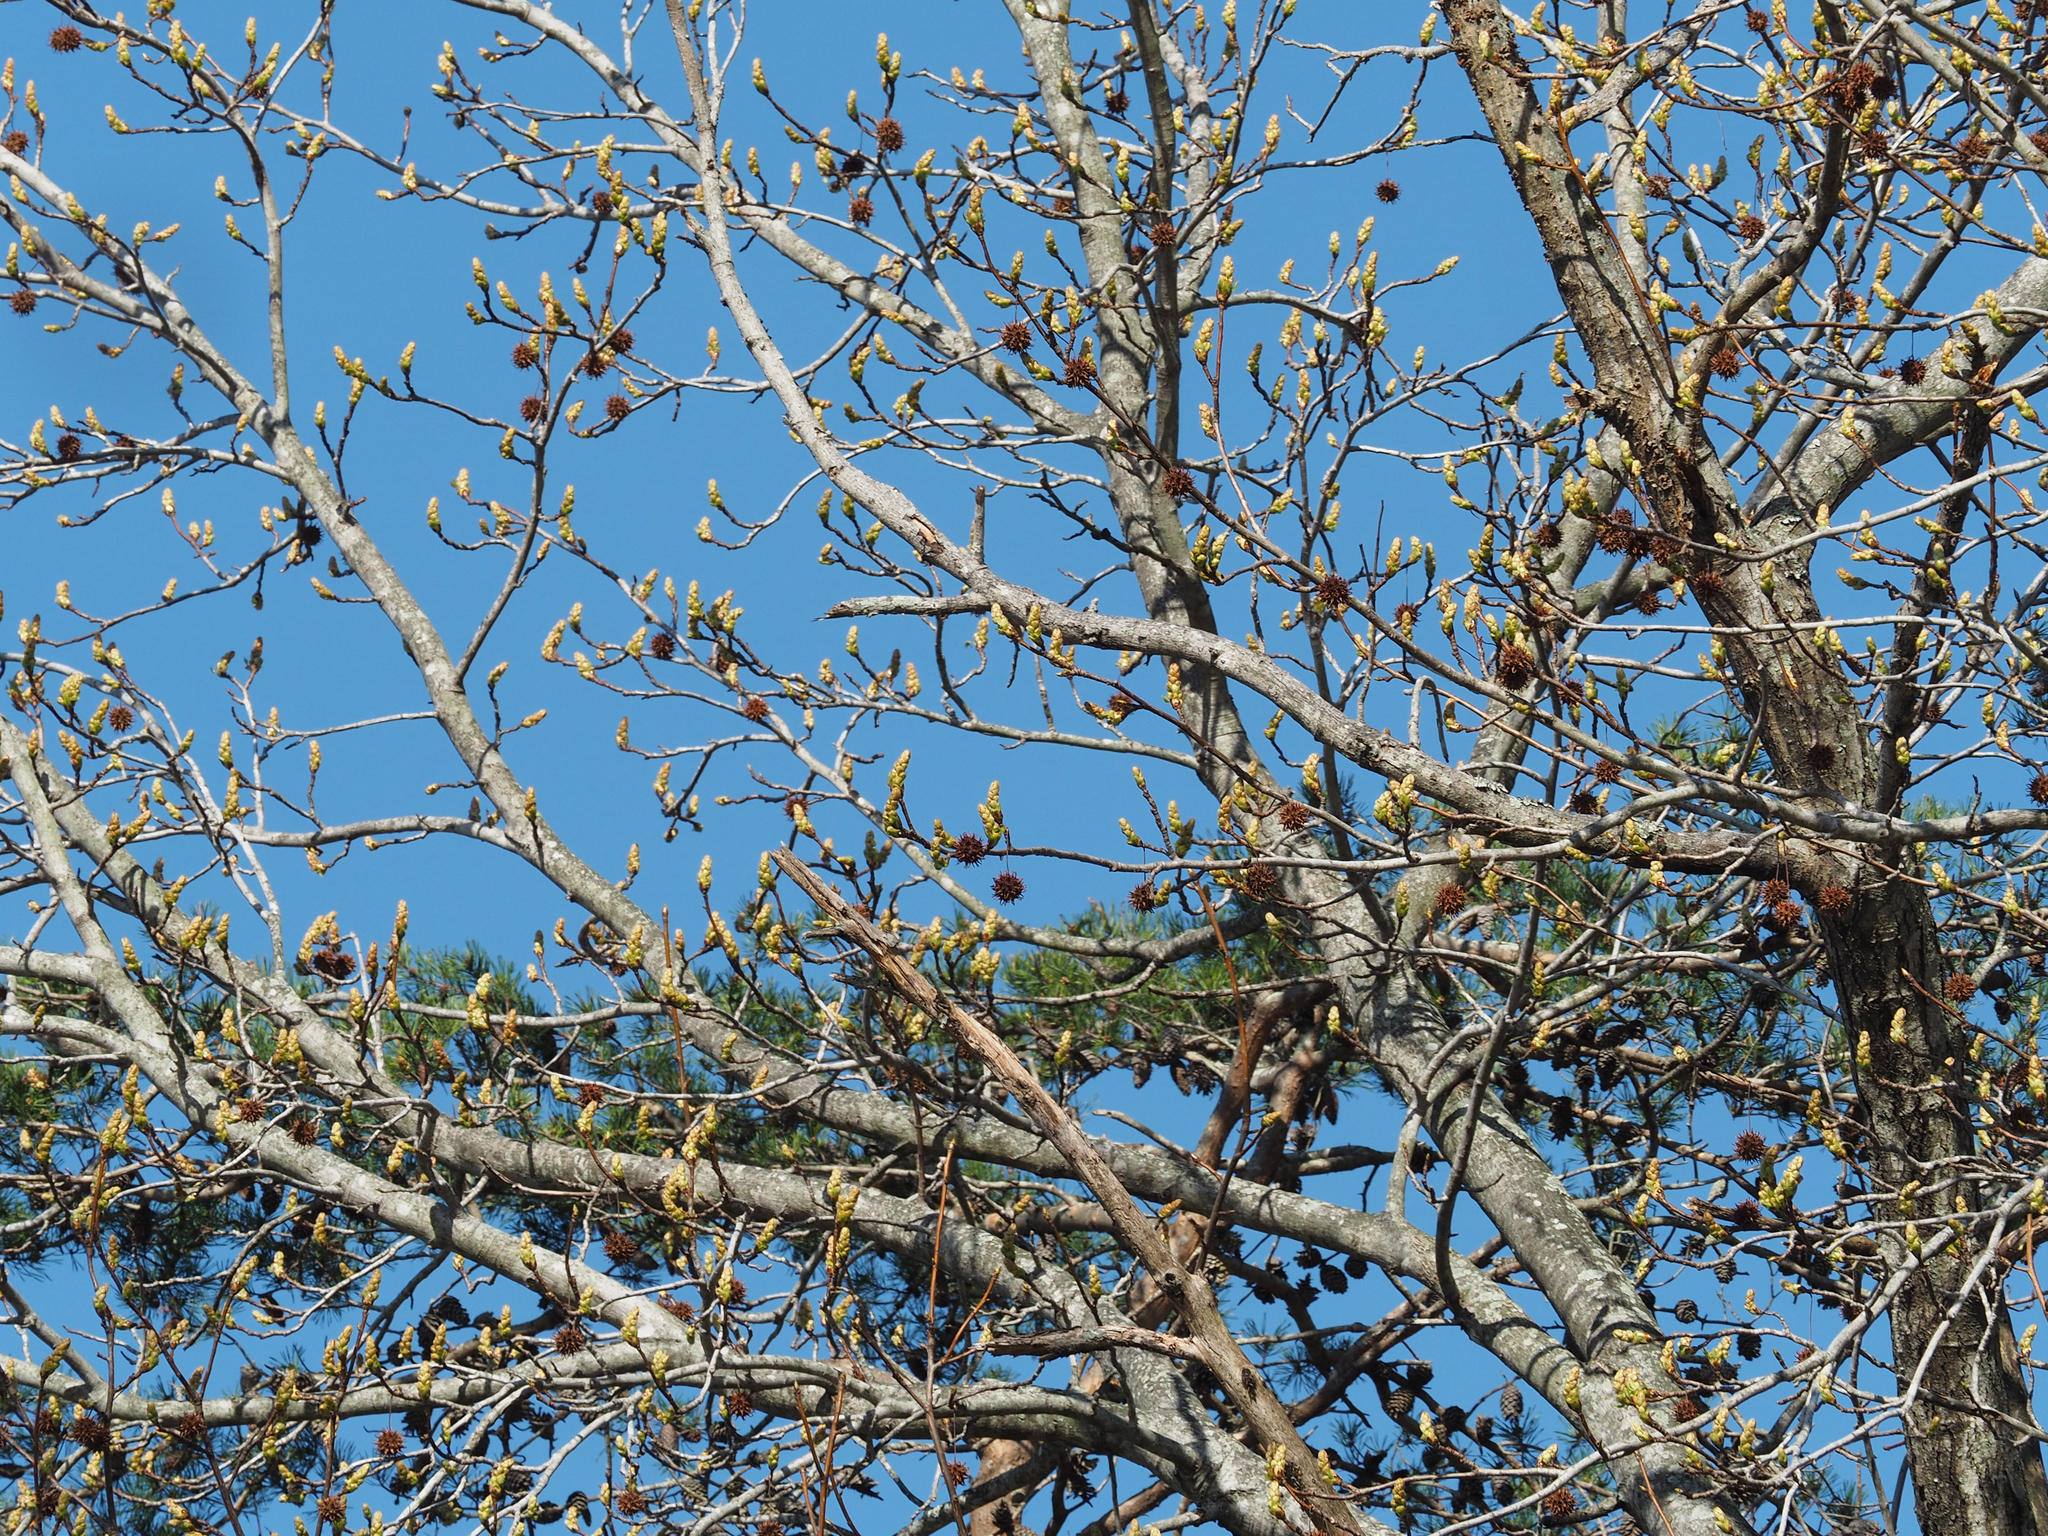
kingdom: Plantae
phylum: Tracheophyta
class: Magnoliopsida
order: Saxifragales
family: Altingiaceae
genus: Liquidambar
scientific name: Liquidambar styraciflua
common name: Sweet gum
